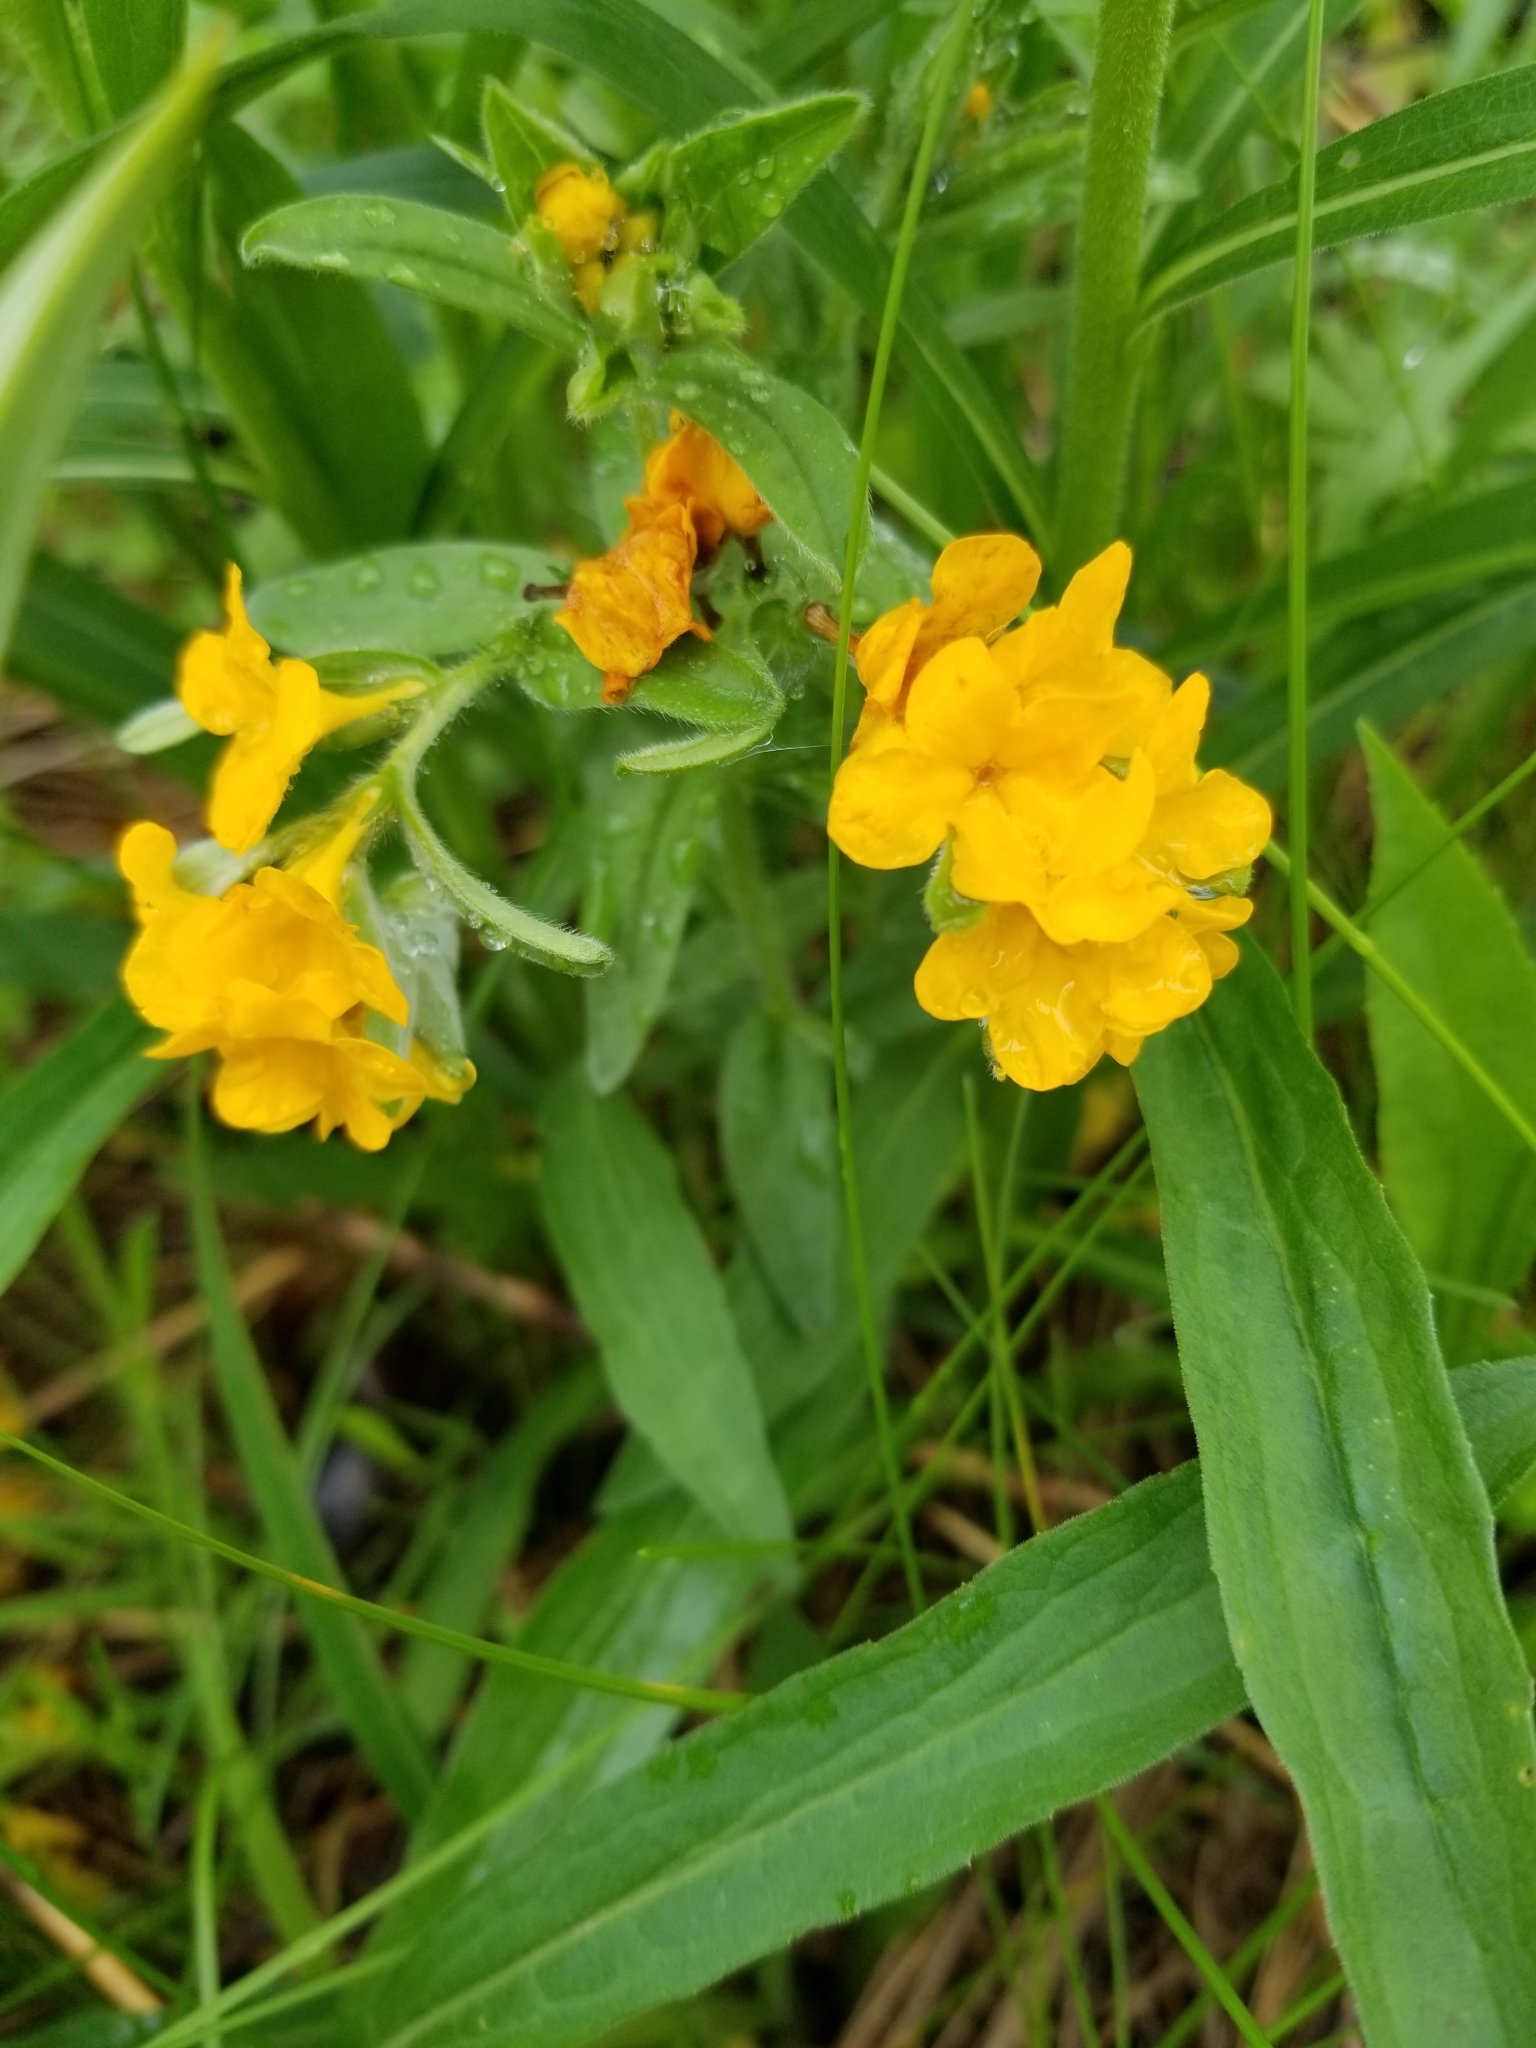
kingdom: Plantae
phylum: Tracheophyta
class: Magnoliopsida
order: Boraginales
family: Boraginaceae
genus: Lithospermum
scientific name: Lithospermum canescens
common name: Hoary puccoon
